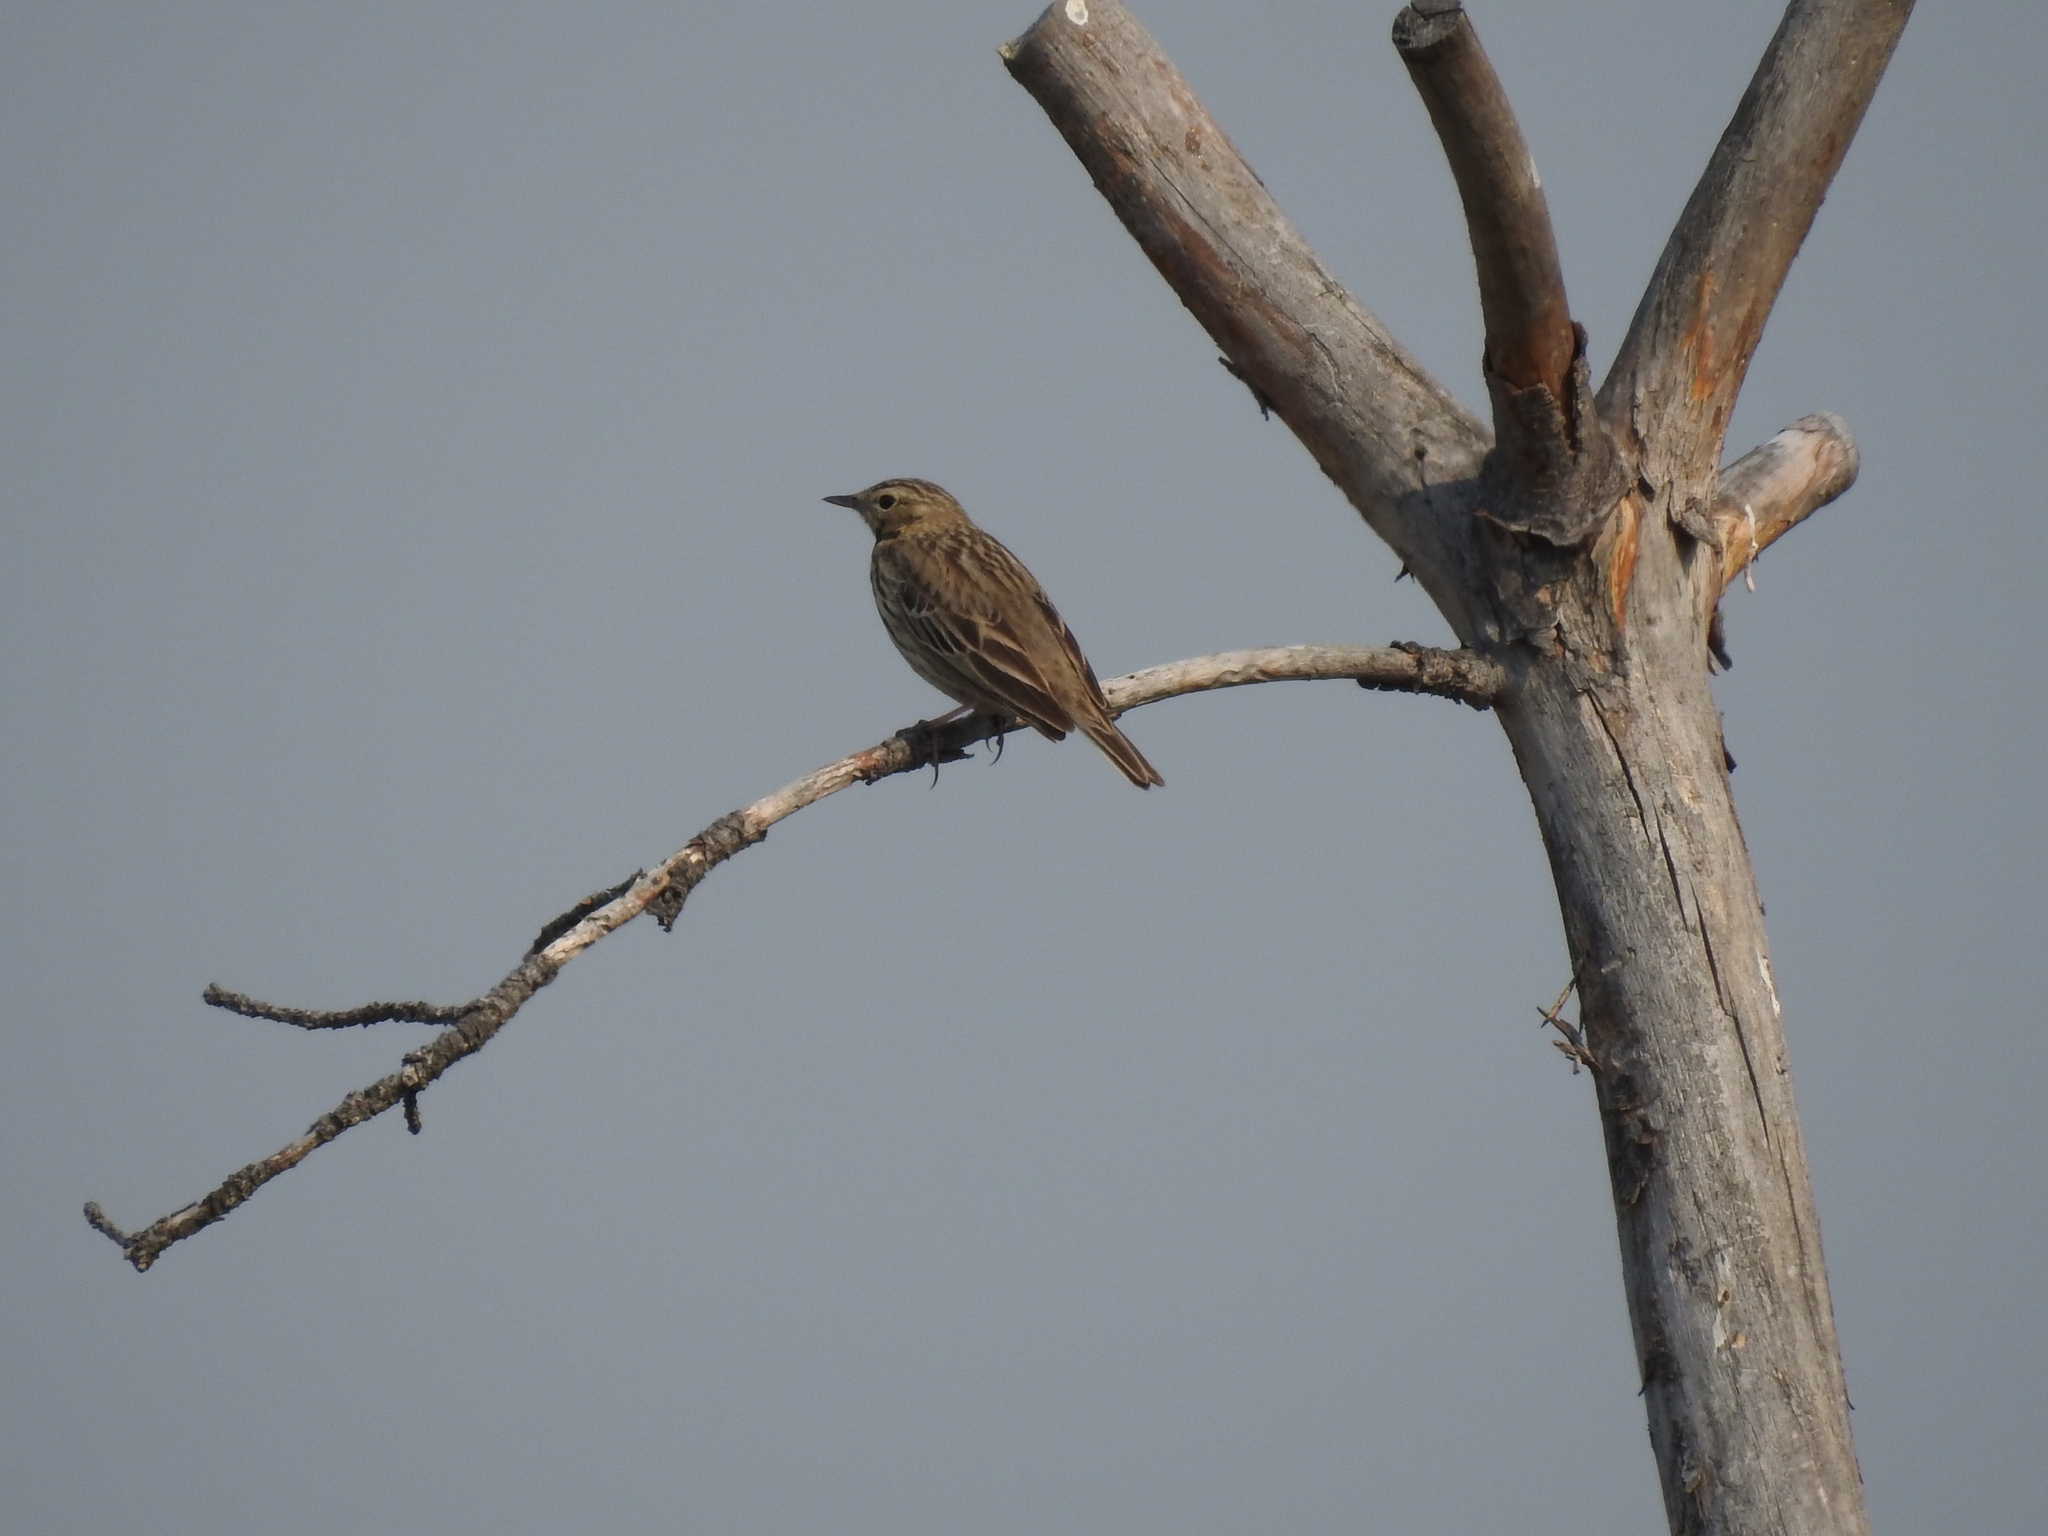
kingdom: Animalia
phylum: Chordata
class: Aves
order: Passeriformes
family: Motacillidae
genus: Anthus
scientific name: Anthus trivialis
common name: Tree pipit
